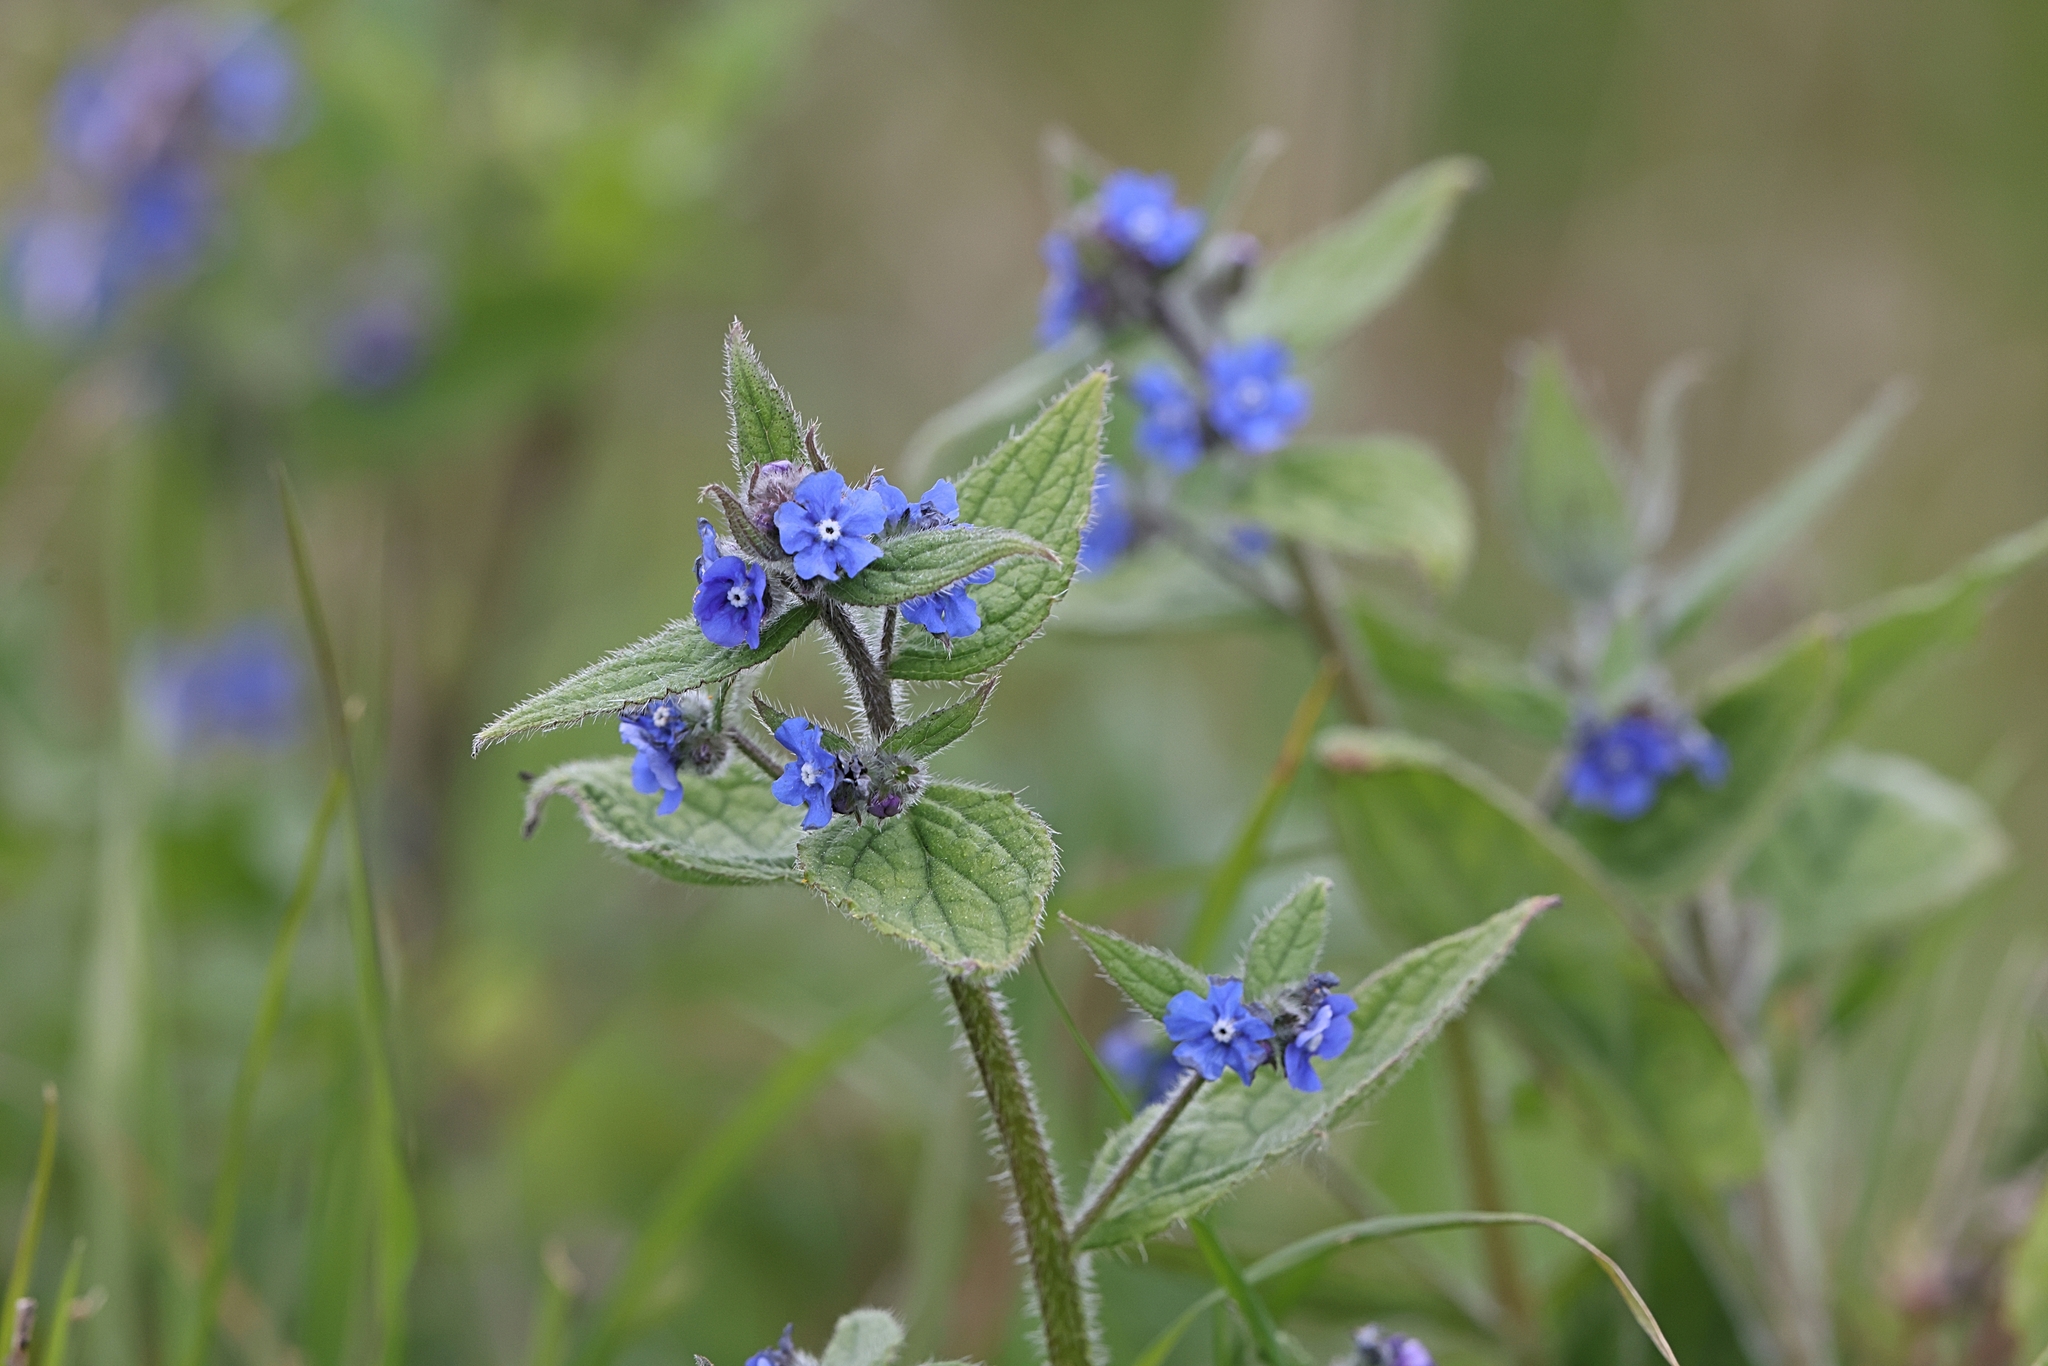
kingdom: Plantae
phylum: Tracheophyta
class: Magnoliopsida
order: Boraginales
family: Boraginaceae
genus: Pentaglottis
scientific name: Pentaglottis sempervirens
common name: Green alkanet
